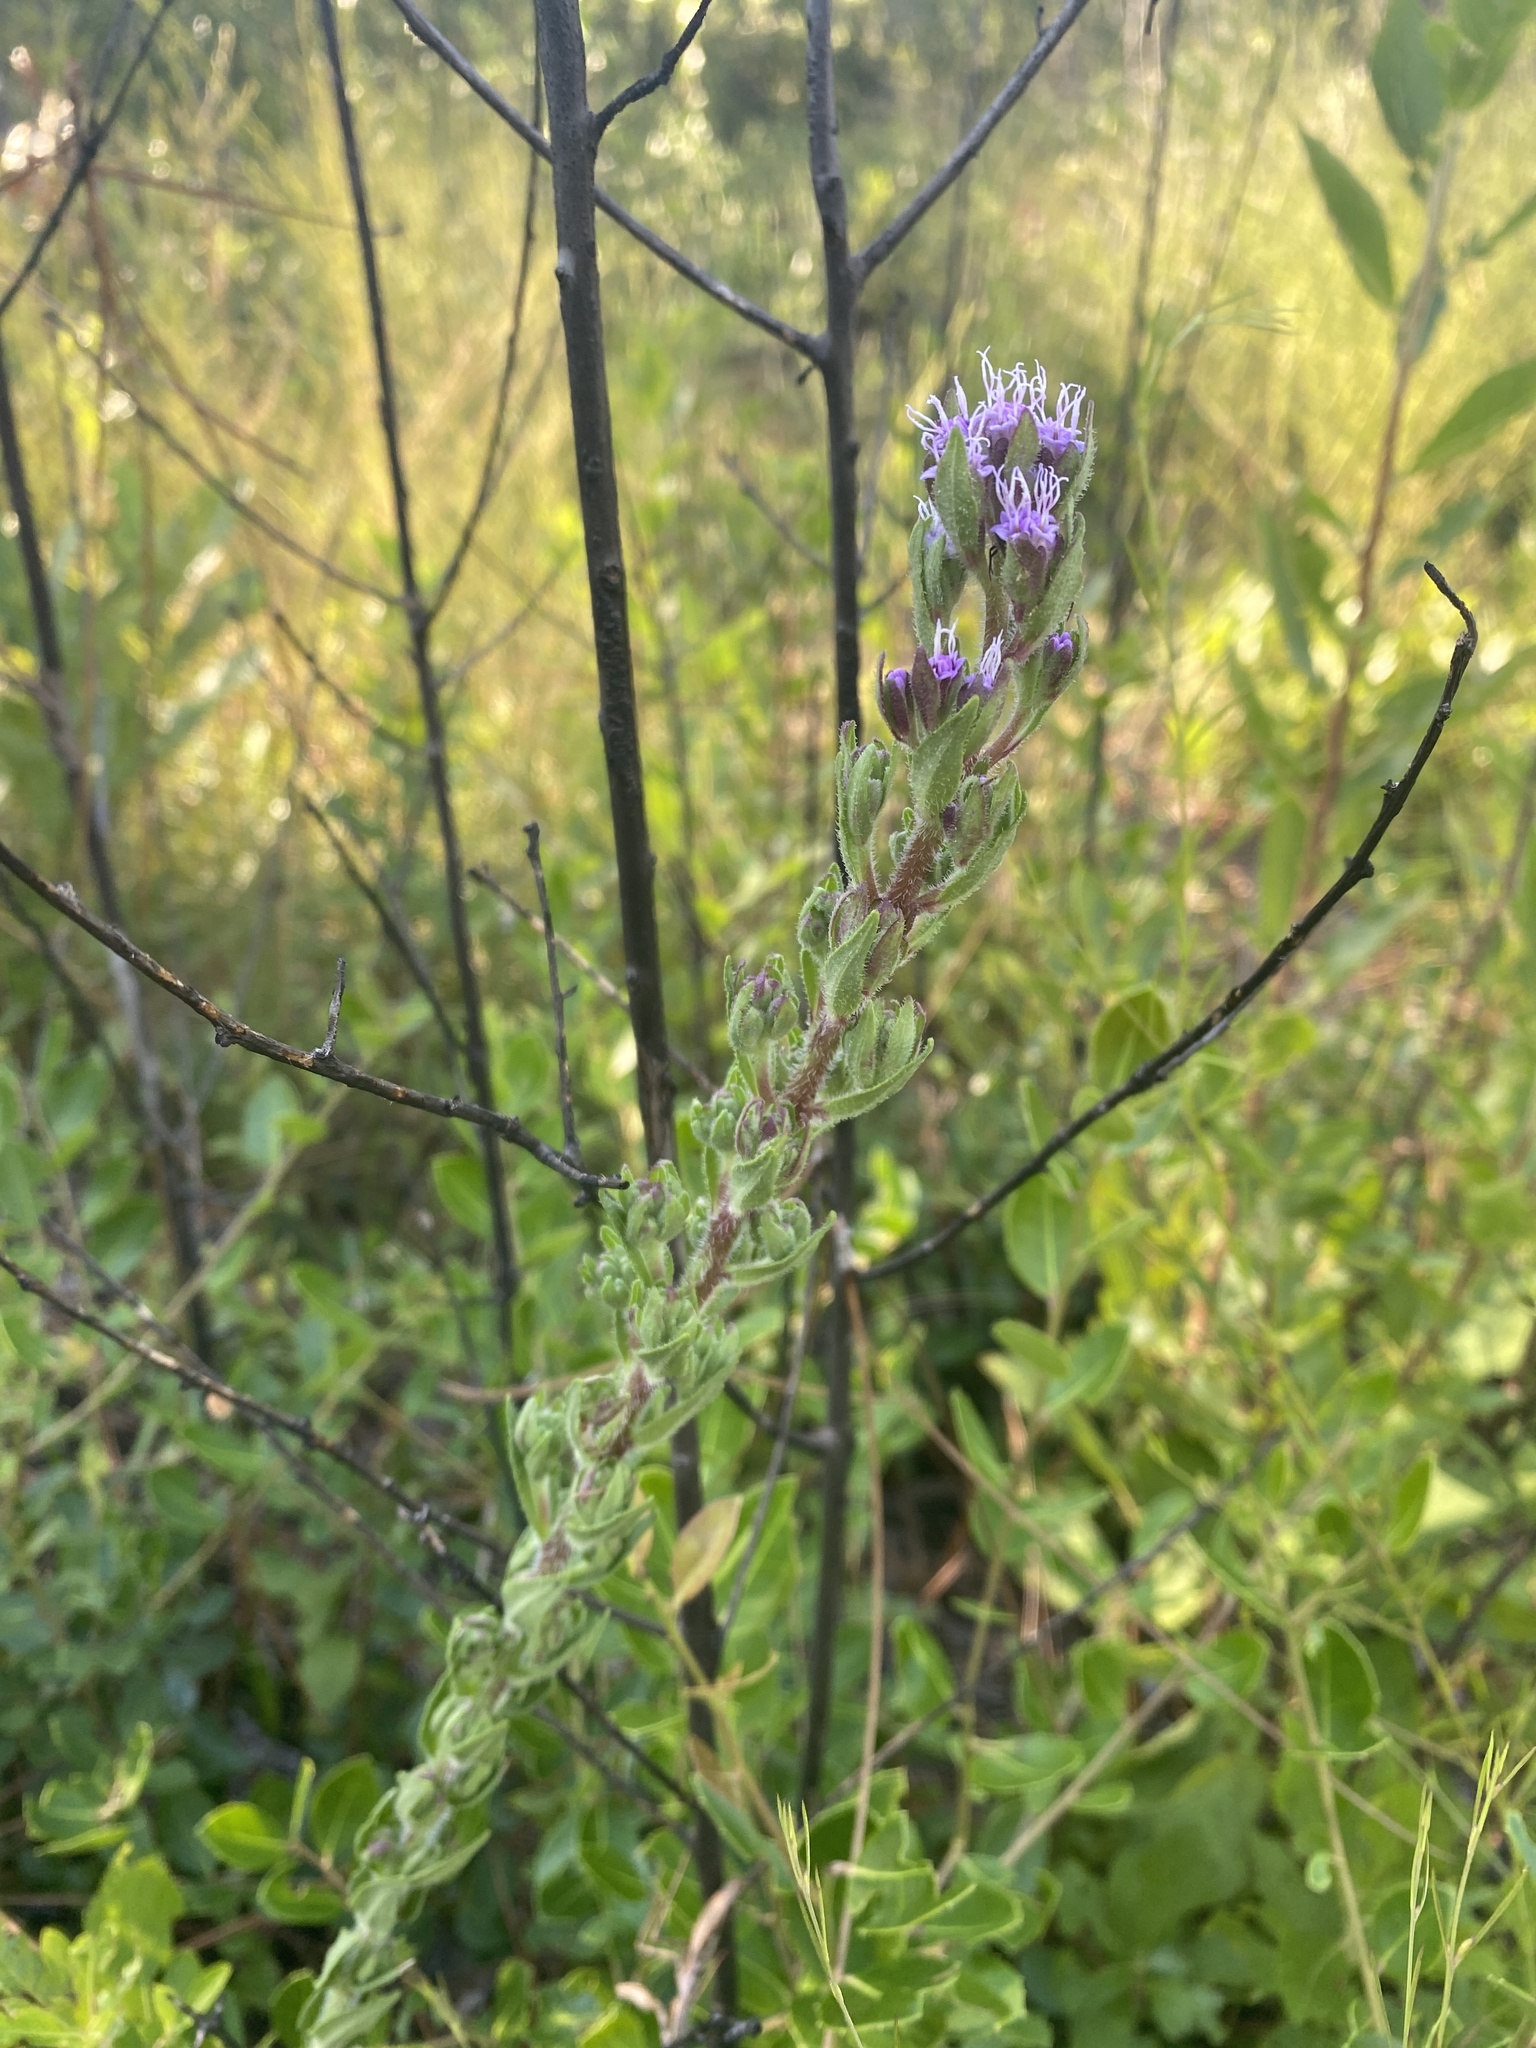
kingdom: Plantae
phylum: Tracheophyta
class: Magnoliopsida
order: Asterales
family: Asteraceae
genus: Carphephorus
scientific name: Carphephorus paniculatus
